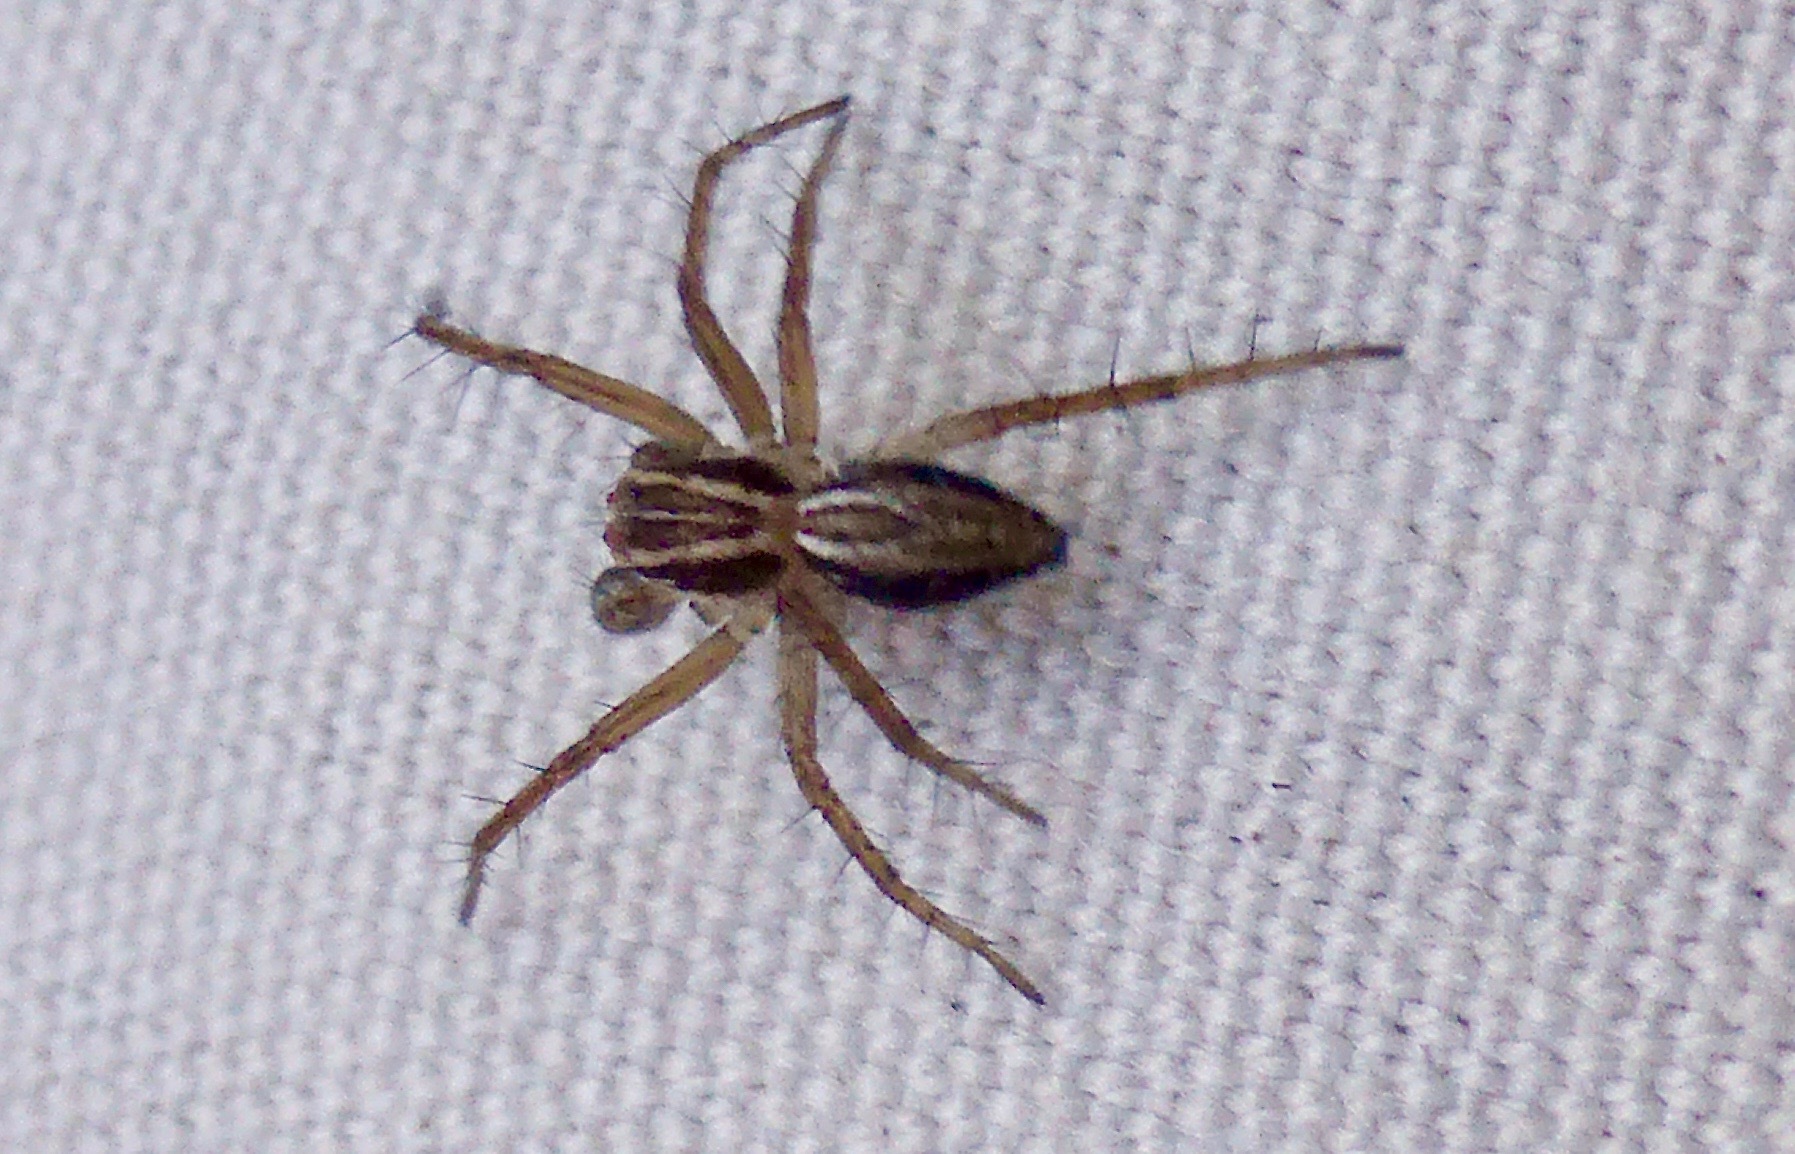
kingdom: Animalia
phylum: Arthropoda
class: Arachnida
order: Araneae
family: Oxyopidae
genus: Oxyopes
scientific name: Oxyopes gracilipes
